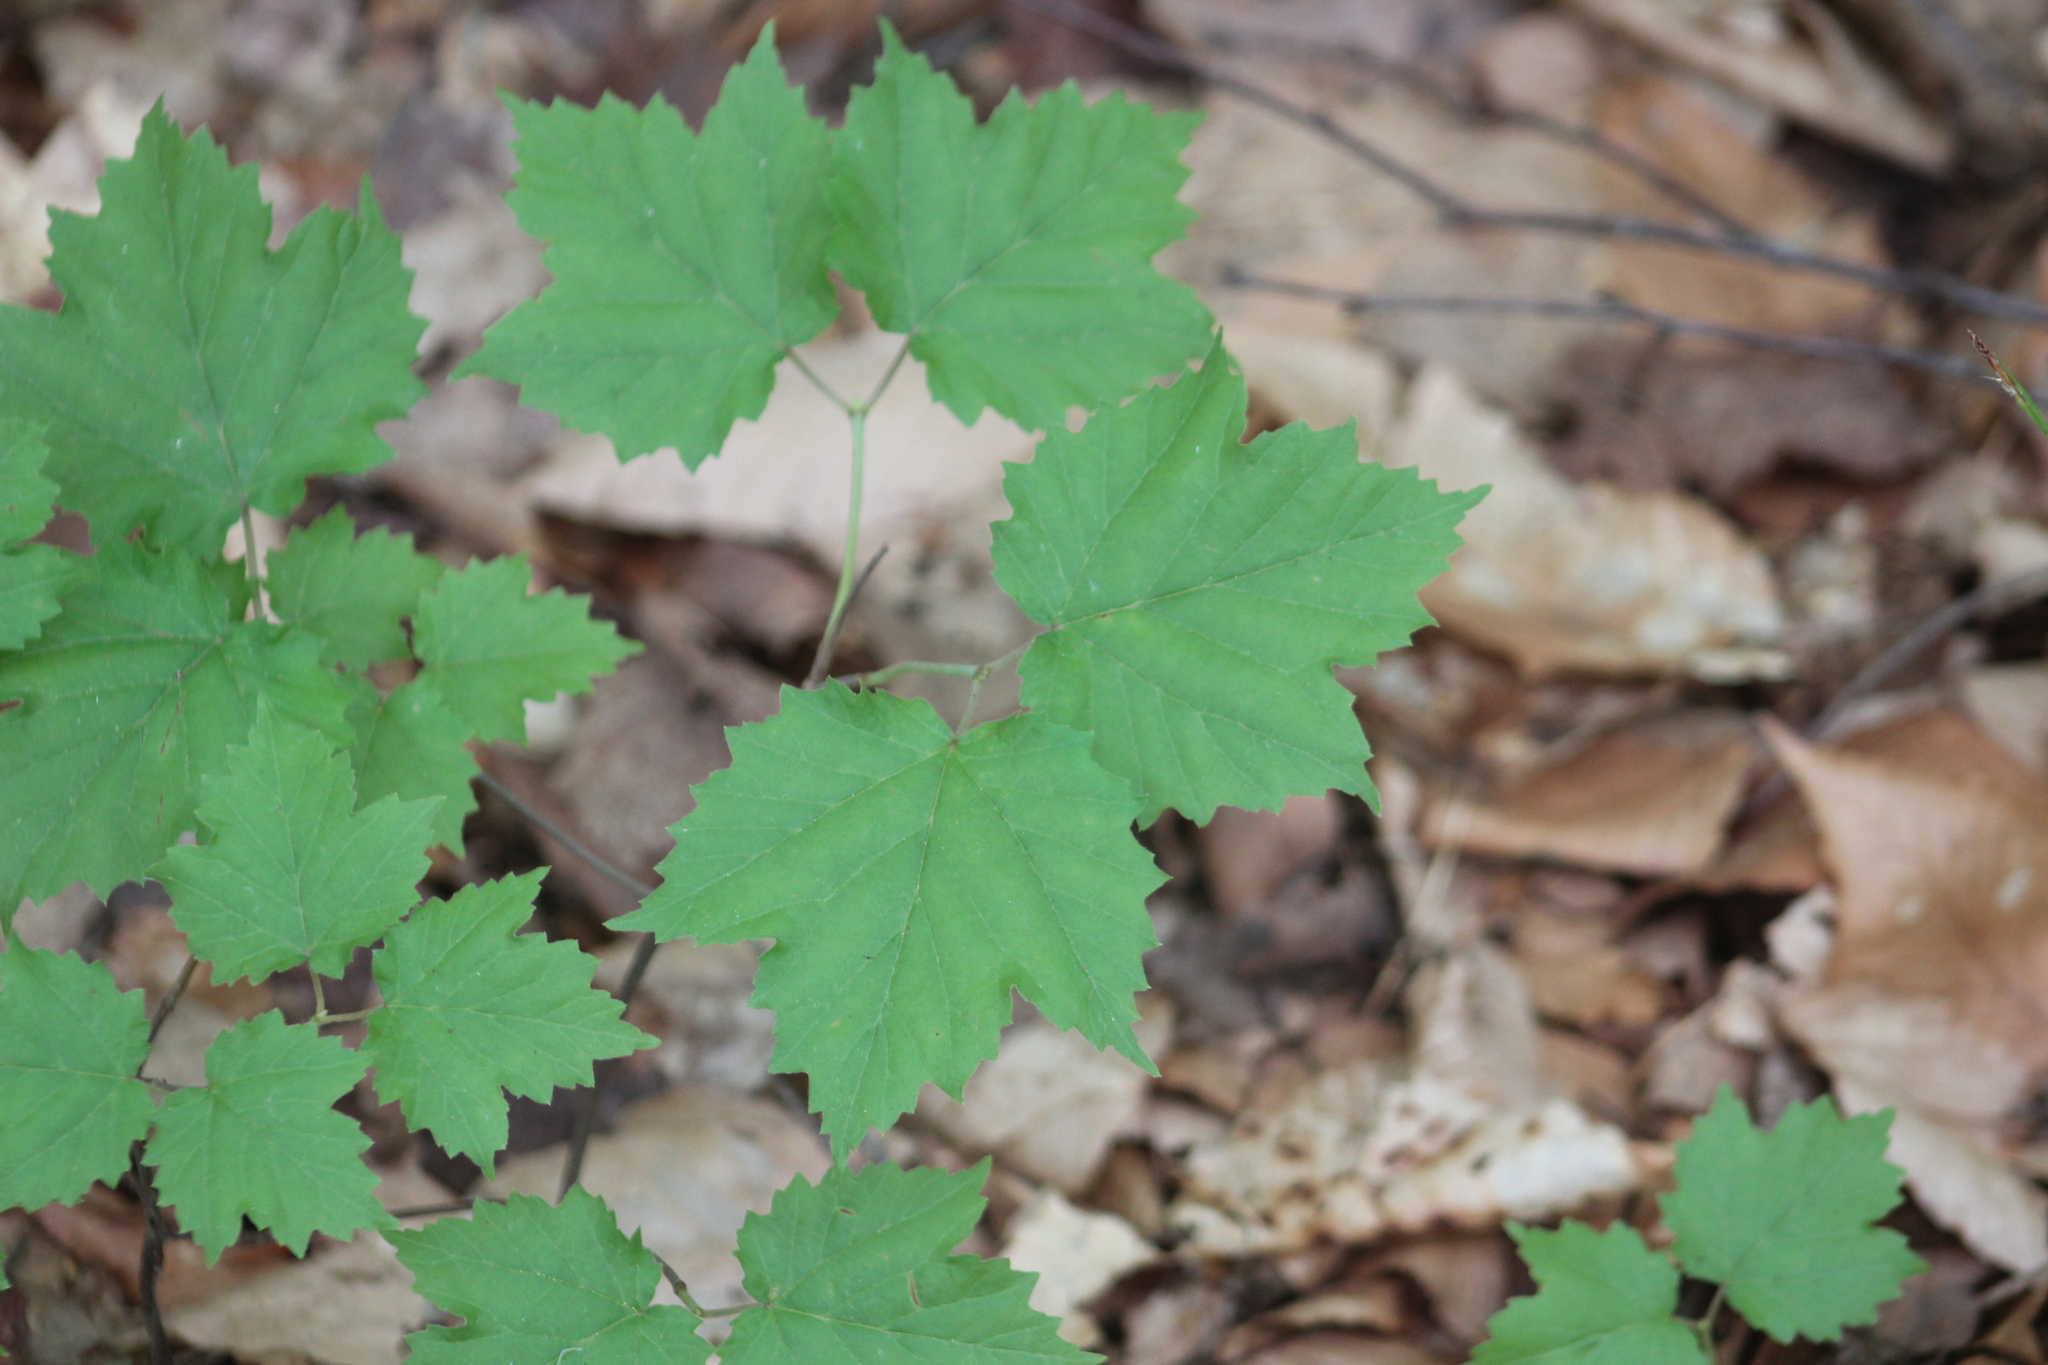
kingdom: Plantae
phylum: Tracheophyta
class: Magnoliopsida
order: Dipsacales
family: Viburnaceae
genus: Viburnum
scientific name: Viburnum acerifolium
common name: Dockmackie
